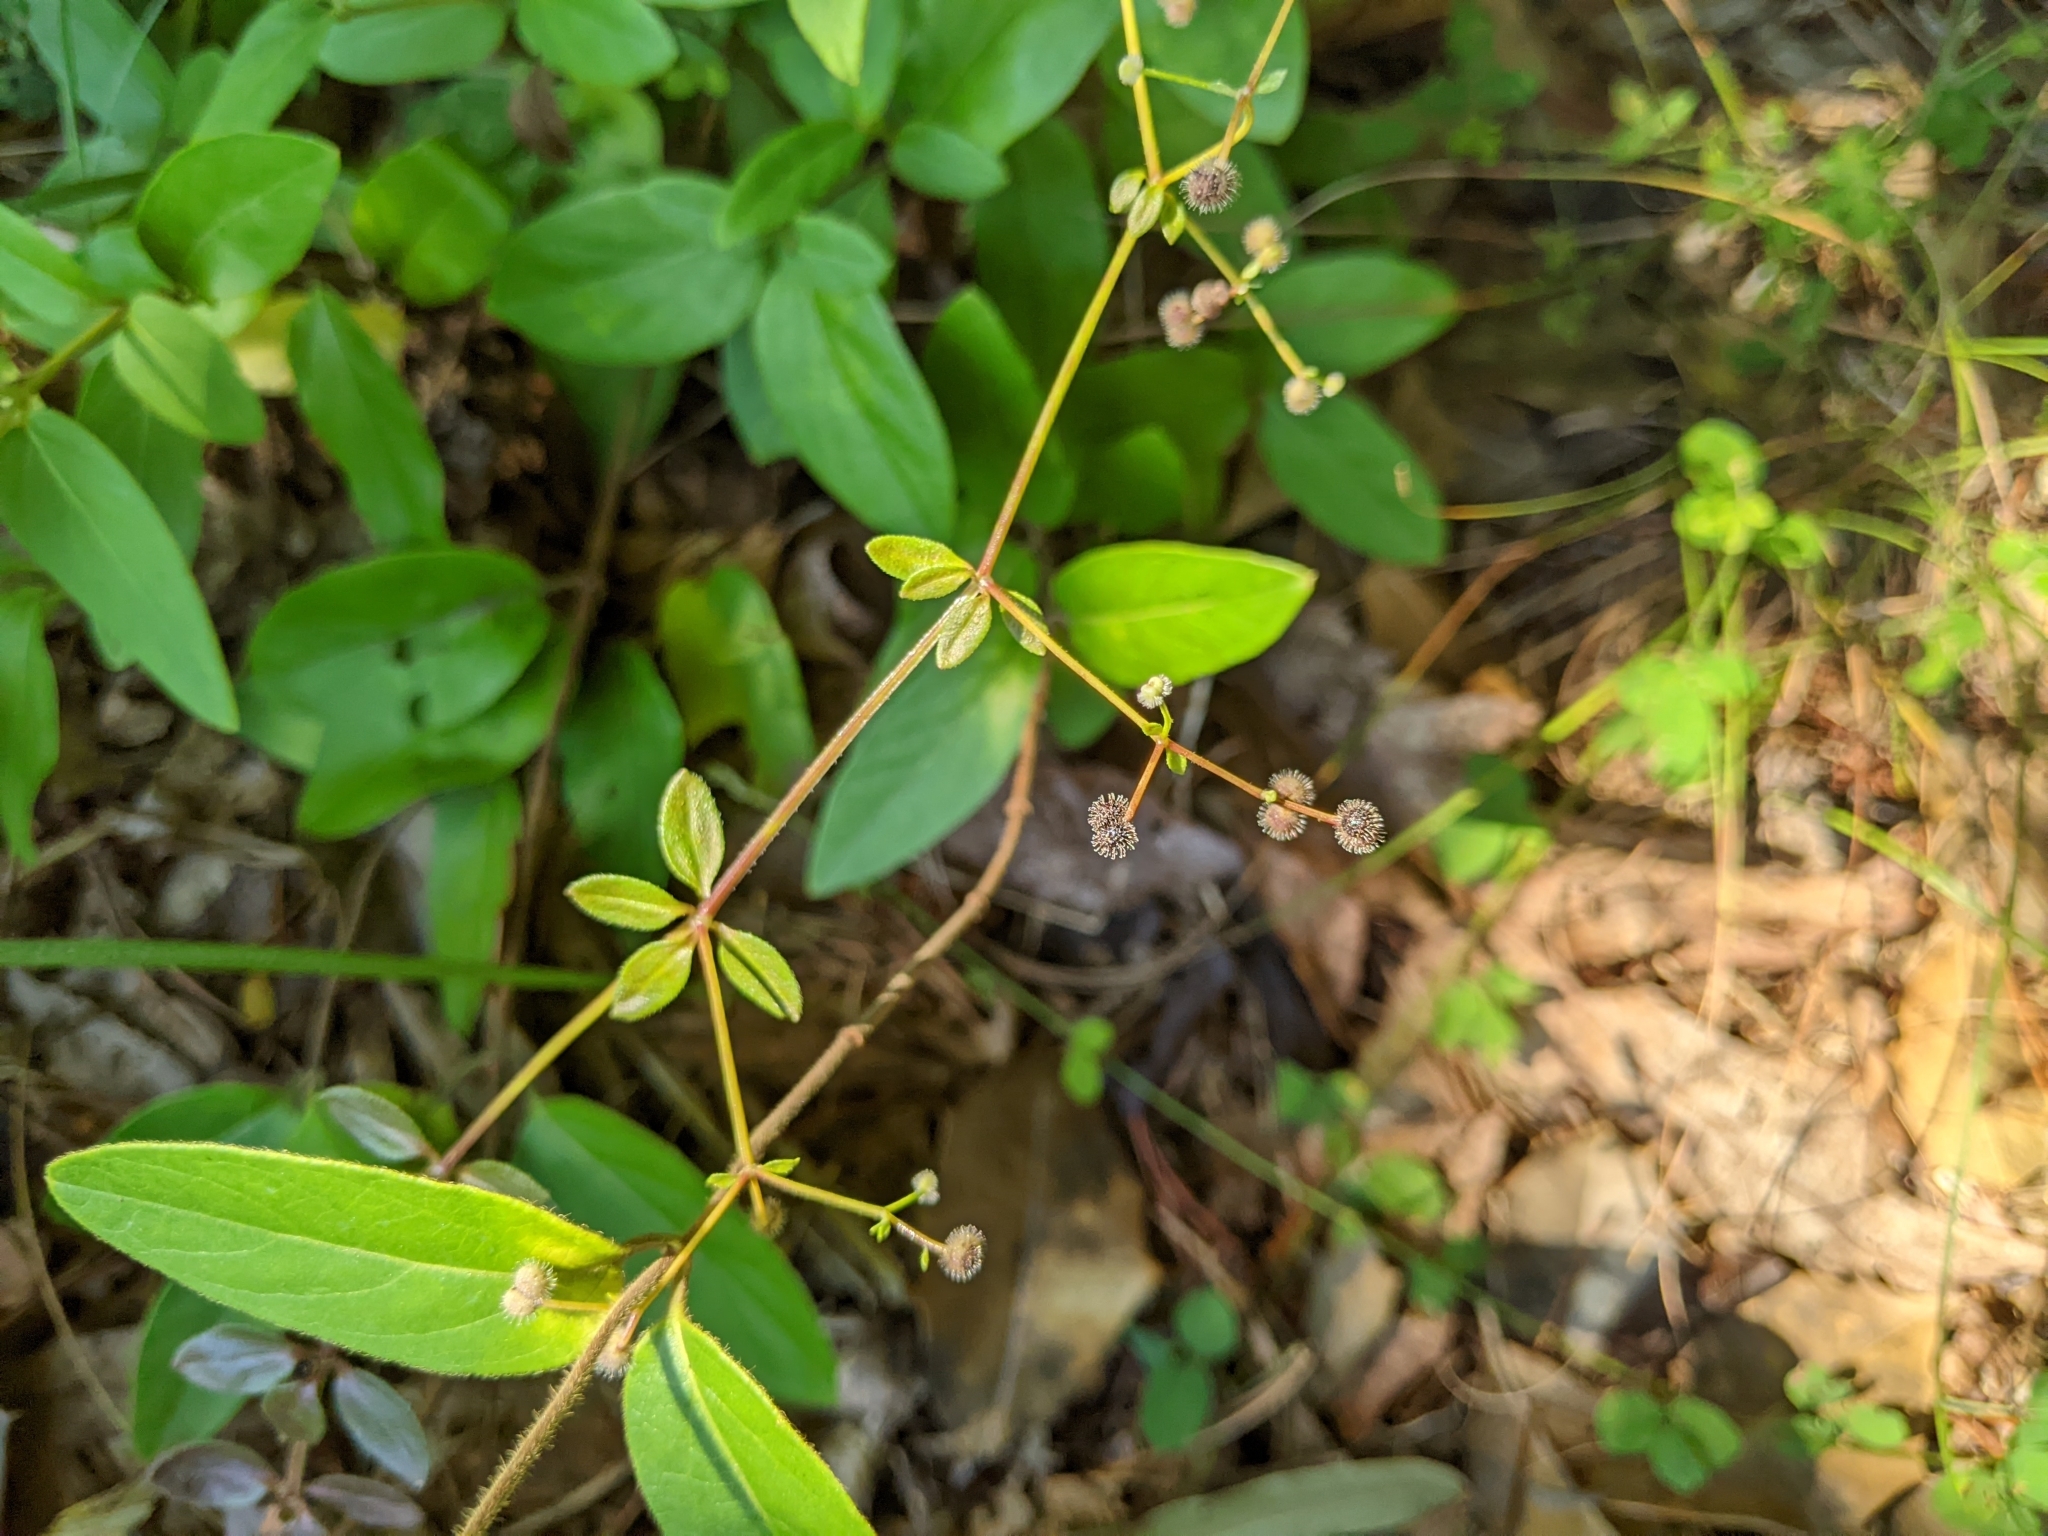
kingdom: Plantae
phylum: Tracheophyta
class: Magnoliopsida
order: Gentianales
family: Rubiaceae
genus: Galium
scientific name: Galium pilosum
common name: Hairy bedstraw
